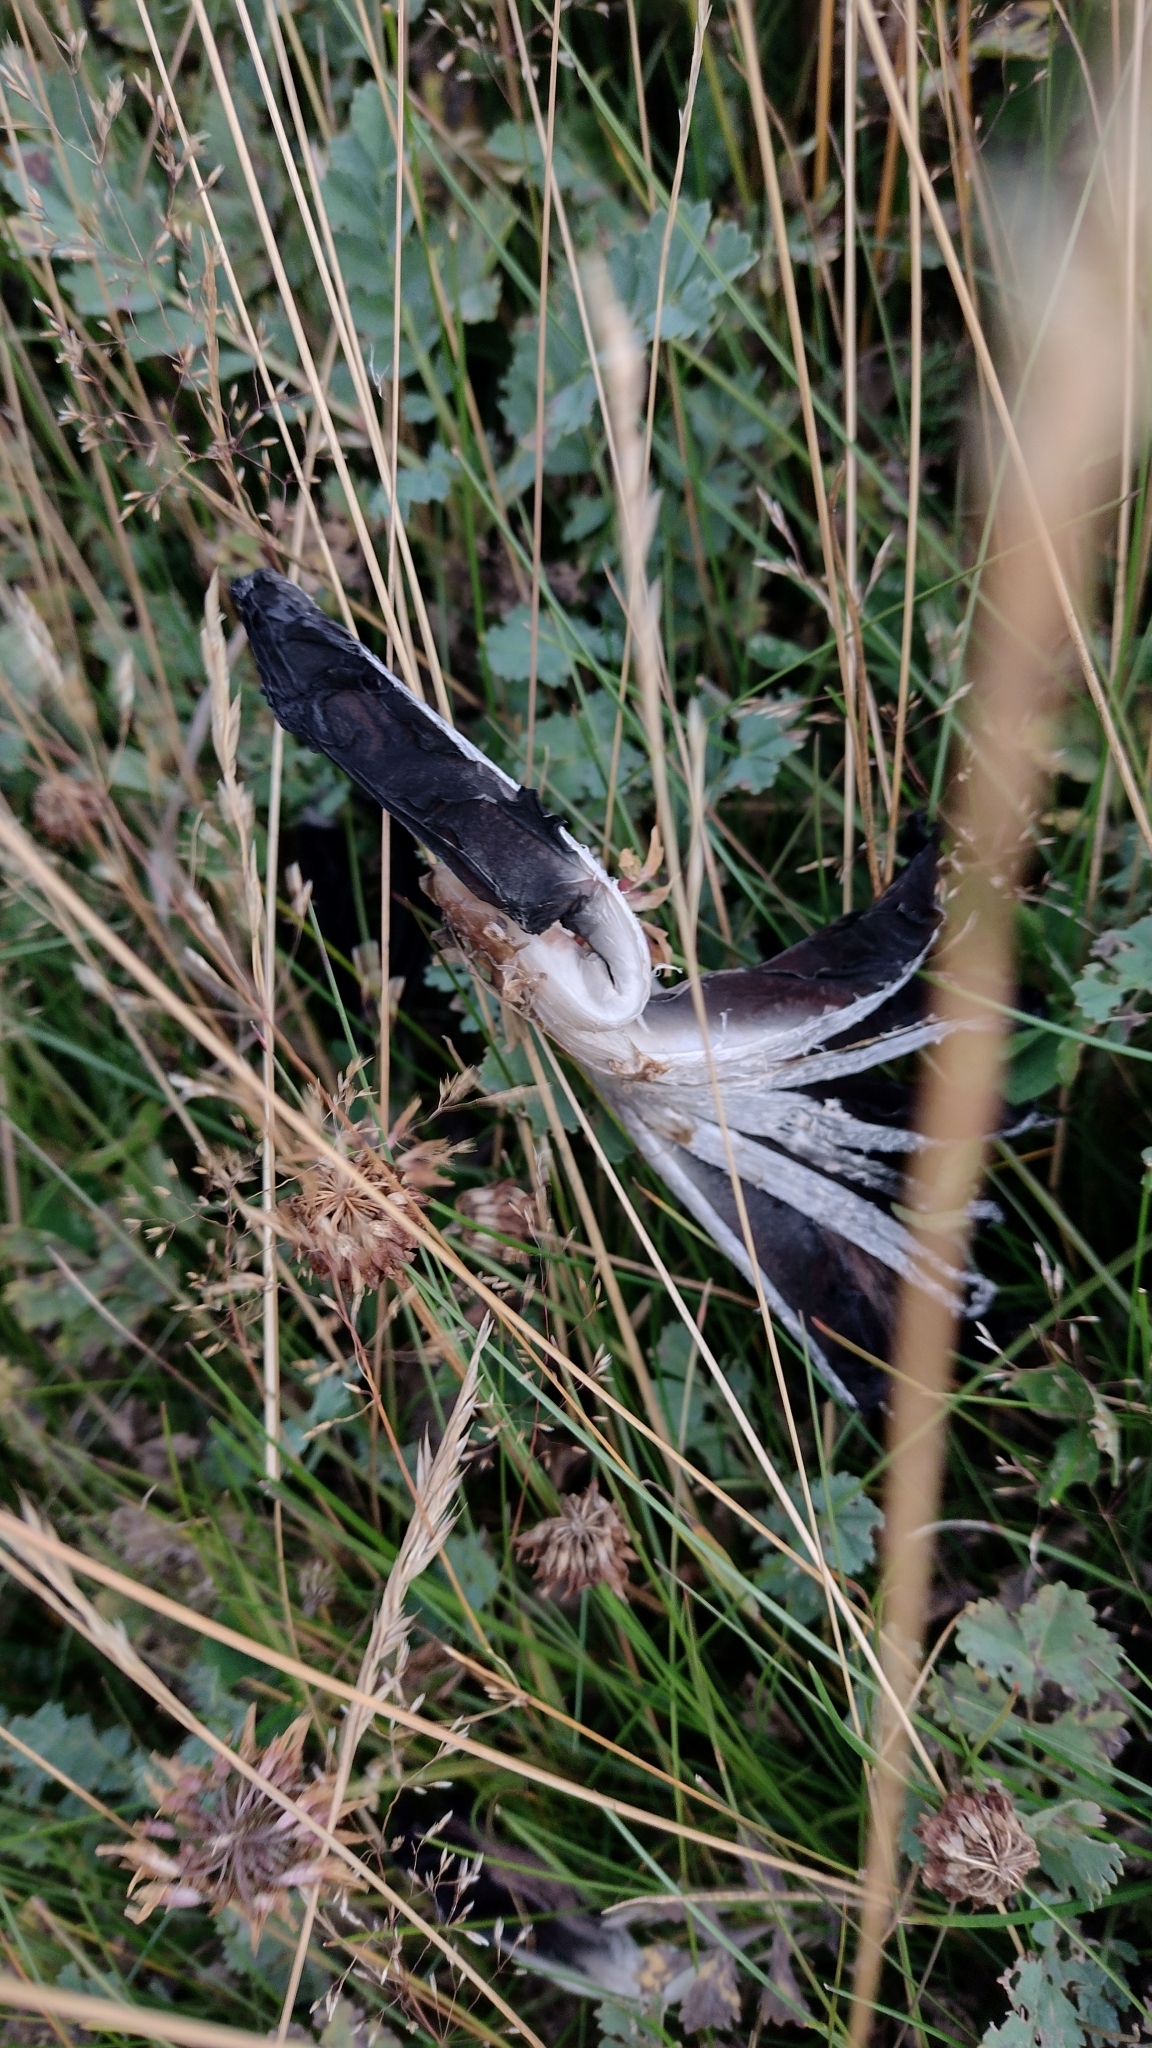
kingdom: Fungi
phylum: Basidiomycota
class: Agaricomycetes
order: Agaricales
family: Agaricaceae
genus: Coprinus
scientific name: Coprinus comatus
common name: Lawyer's wig
